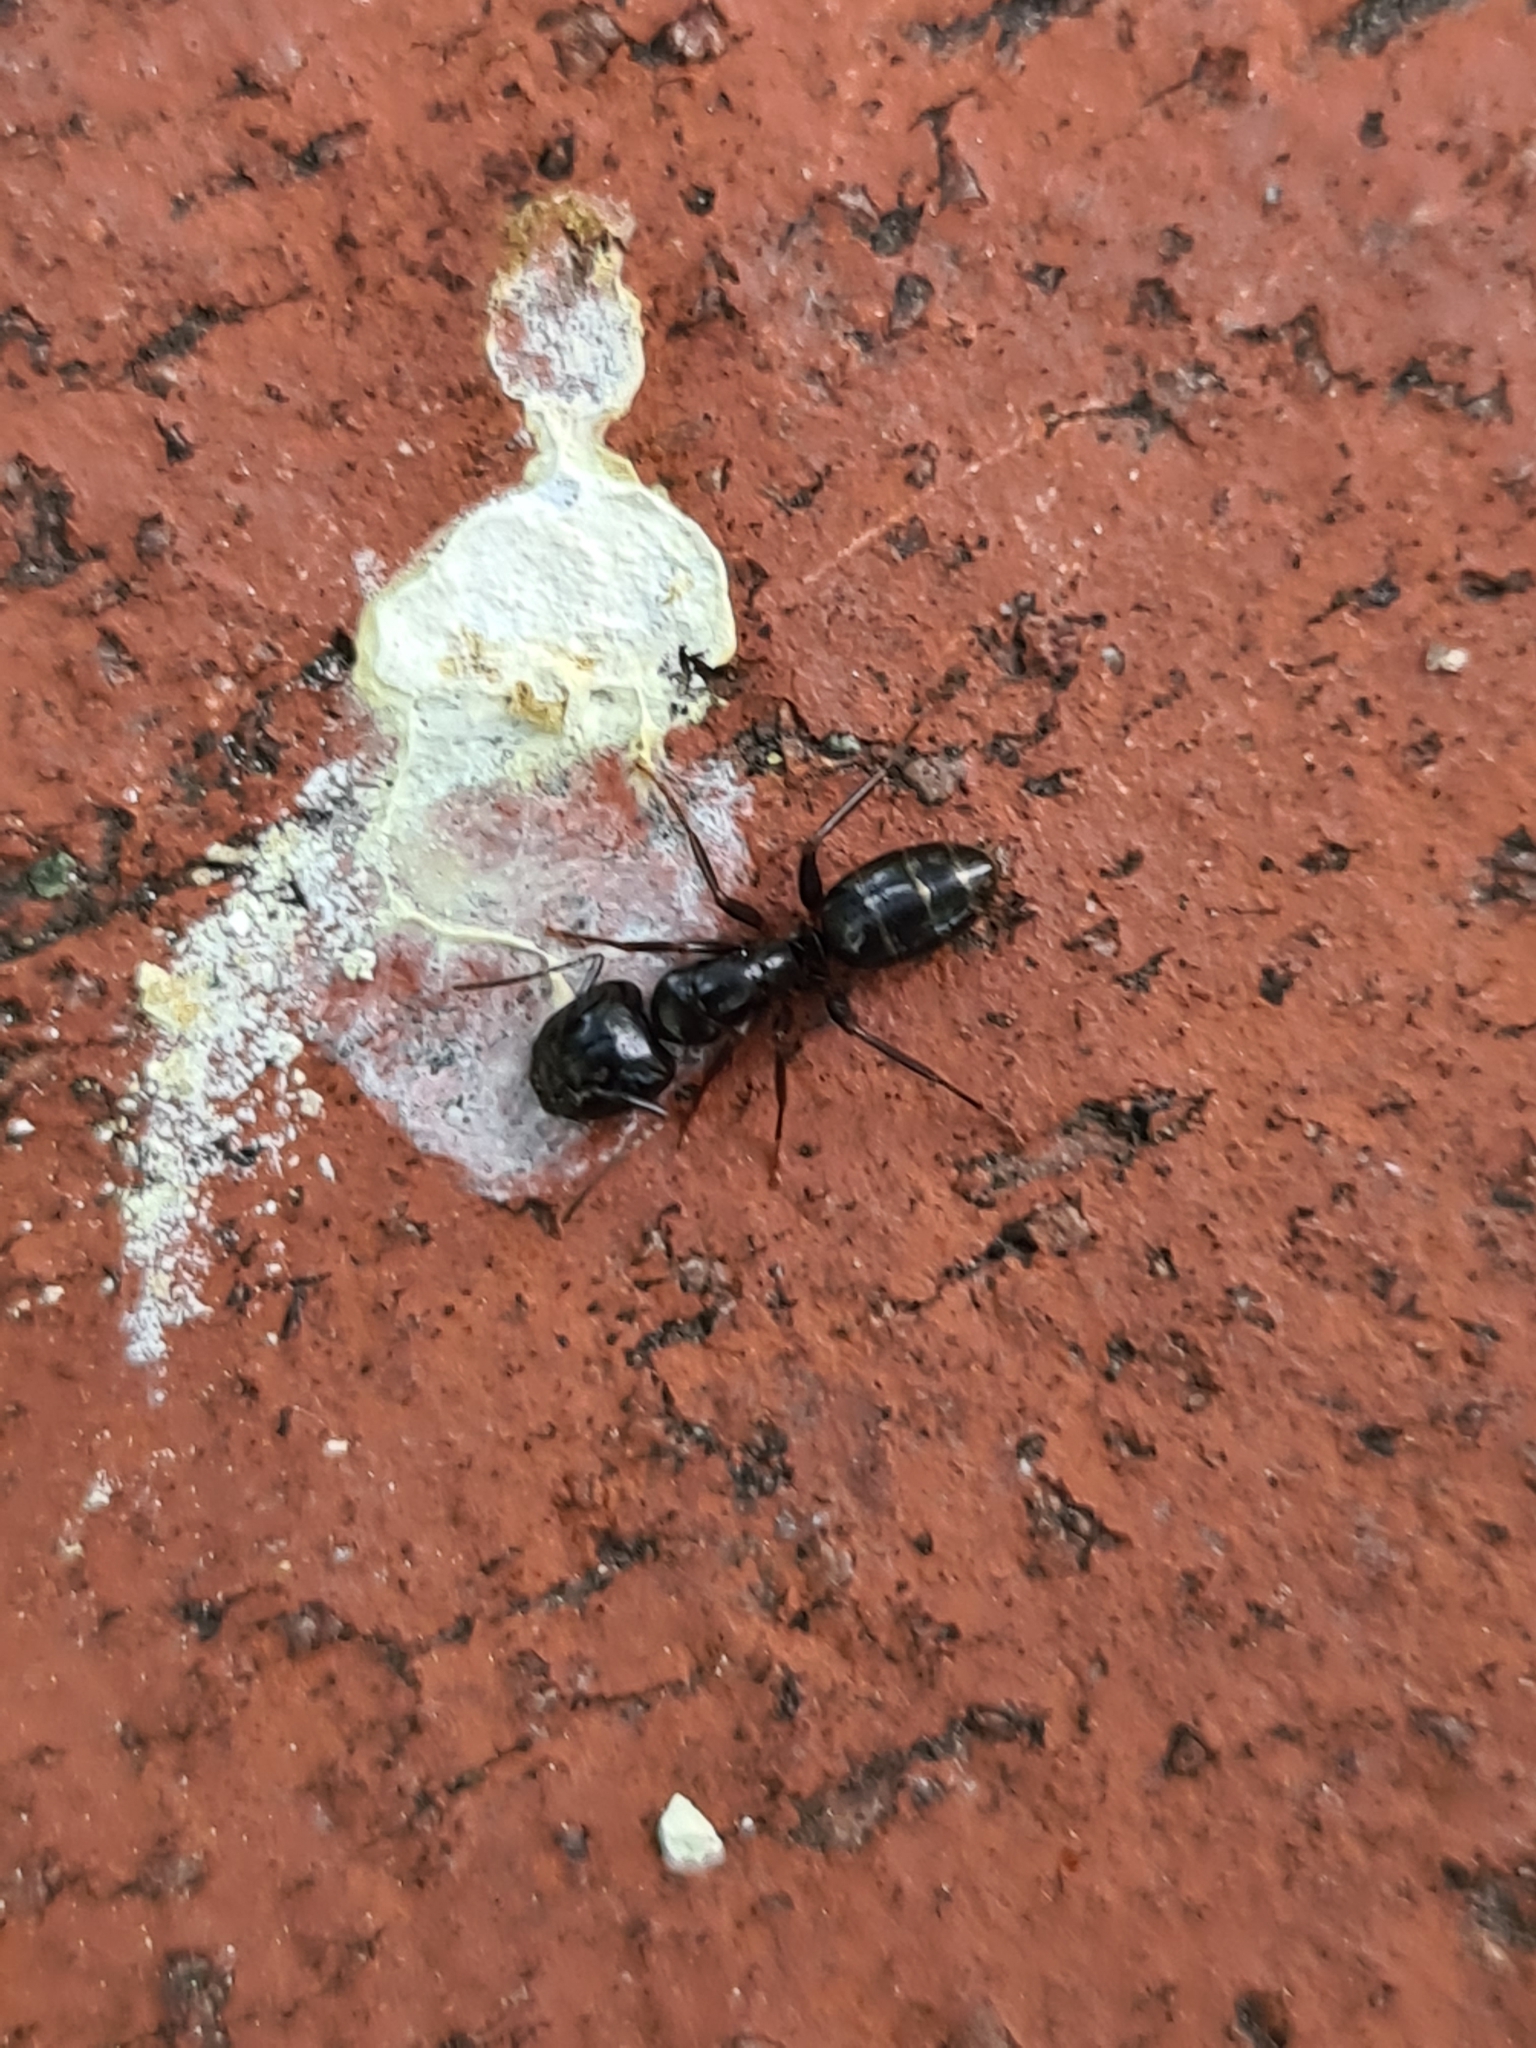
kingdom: Animalia
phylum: Arthropoda
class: Insecta
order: Hymenoptera
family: Formicidae
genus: Camponotus
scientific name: Camponotus fallax
